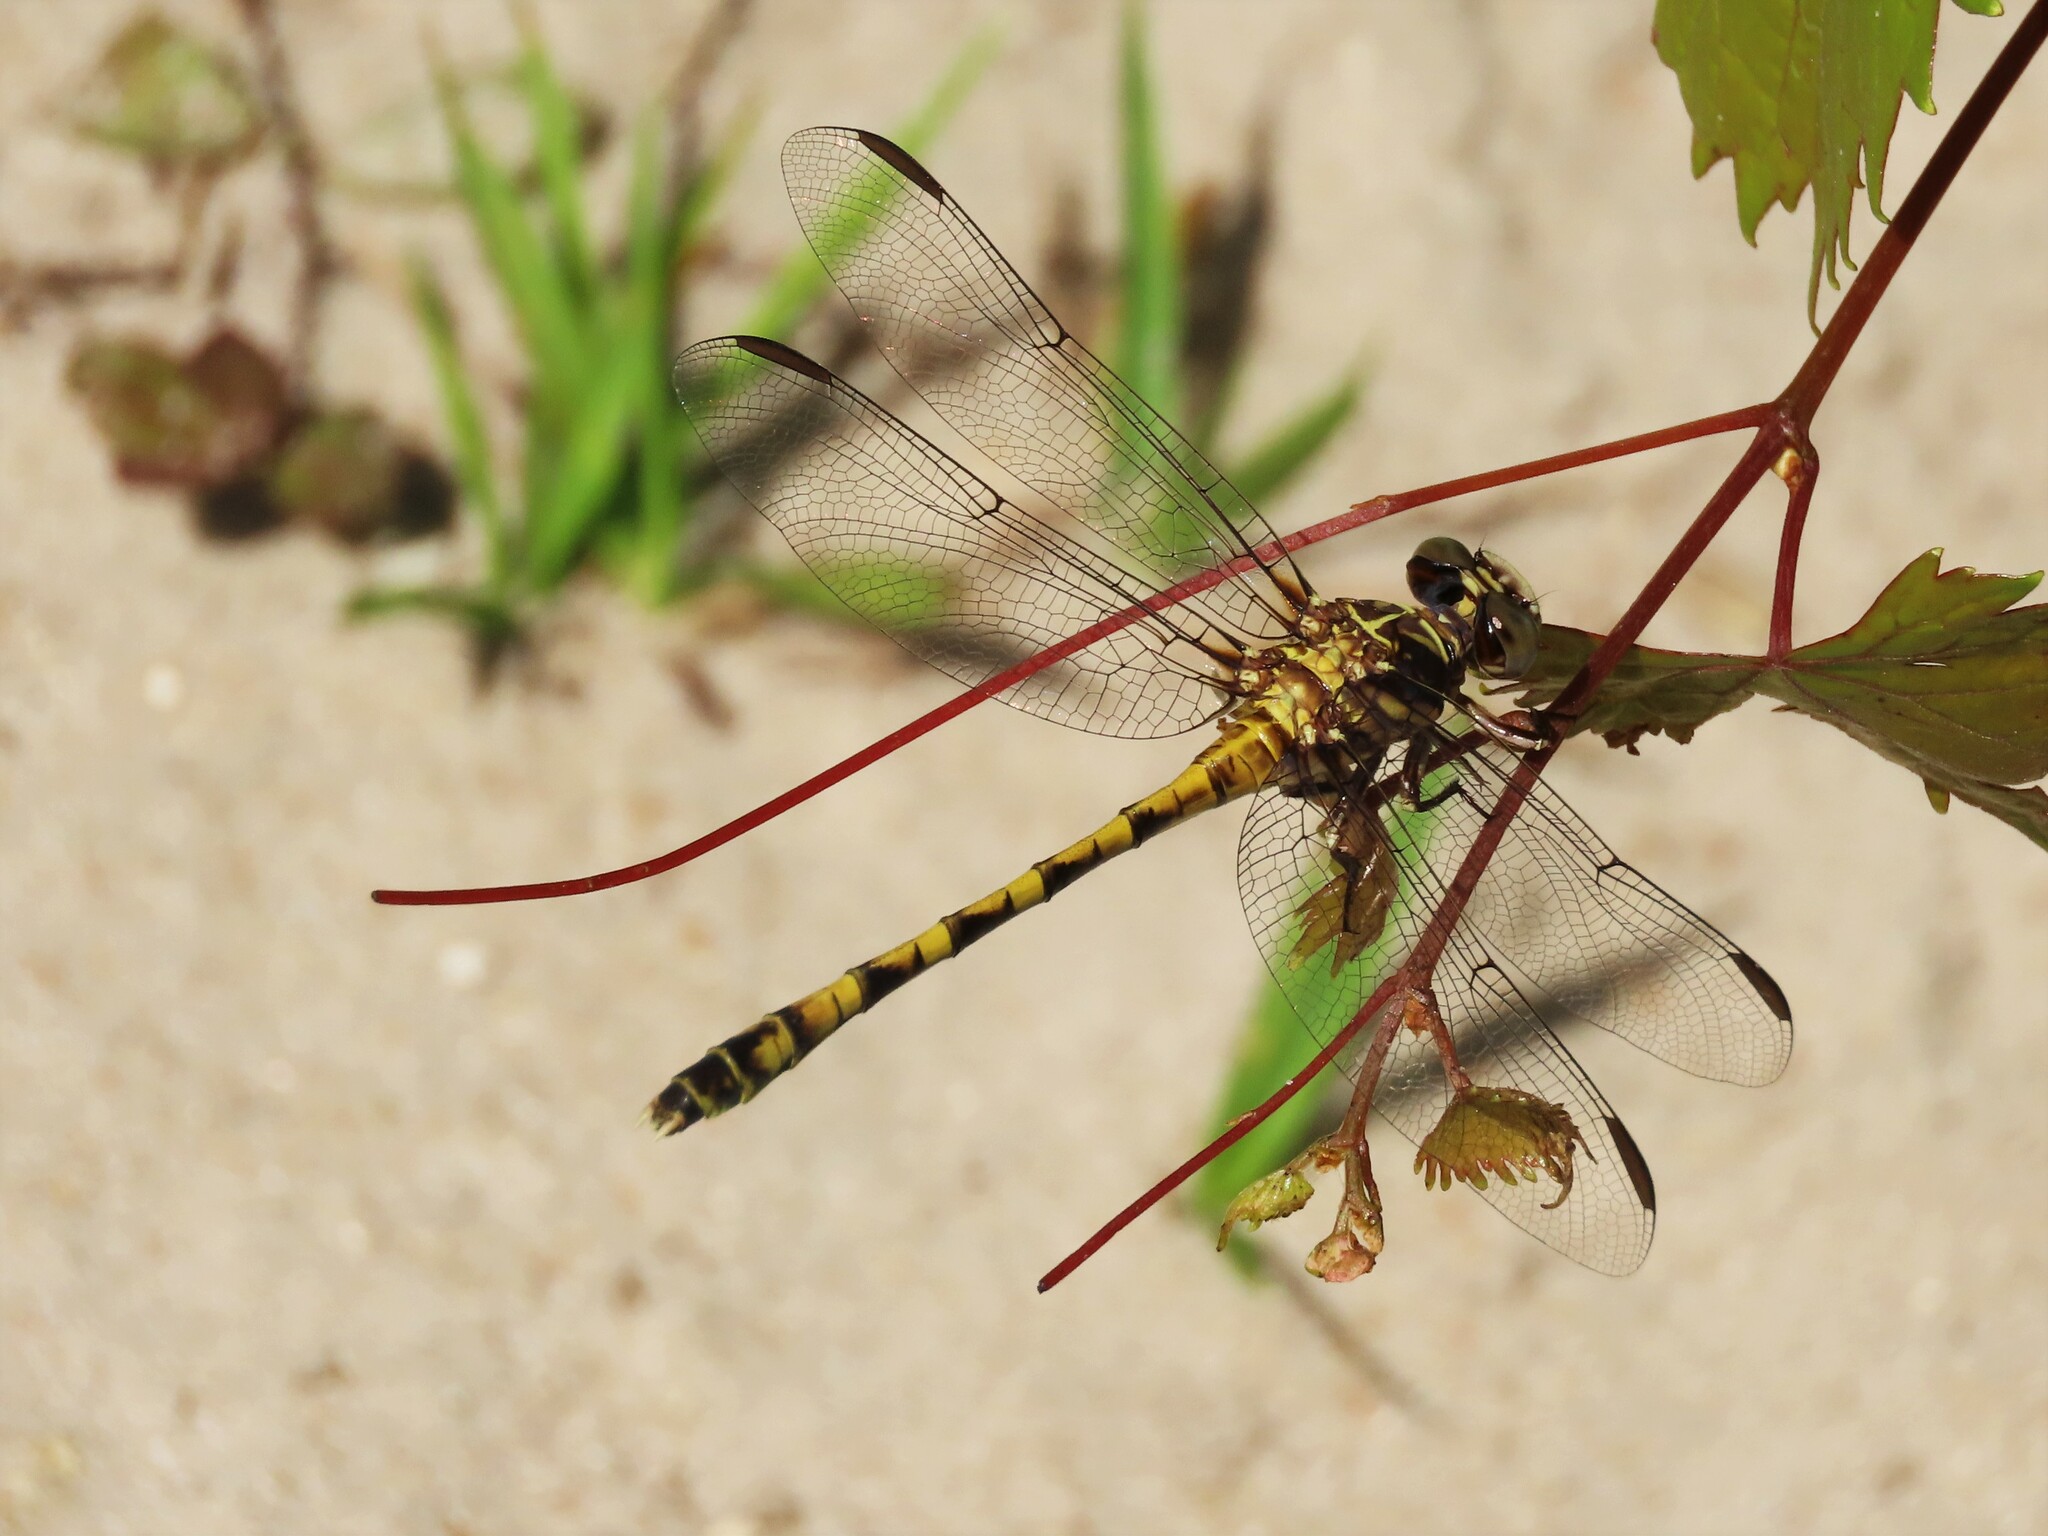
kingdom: Animalia
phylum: Arthropoda
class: Insecta
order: Odonata
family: Gomphidae
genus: Progomphus
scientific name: Progomphus alachuensis
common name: Tawny sanddragon
